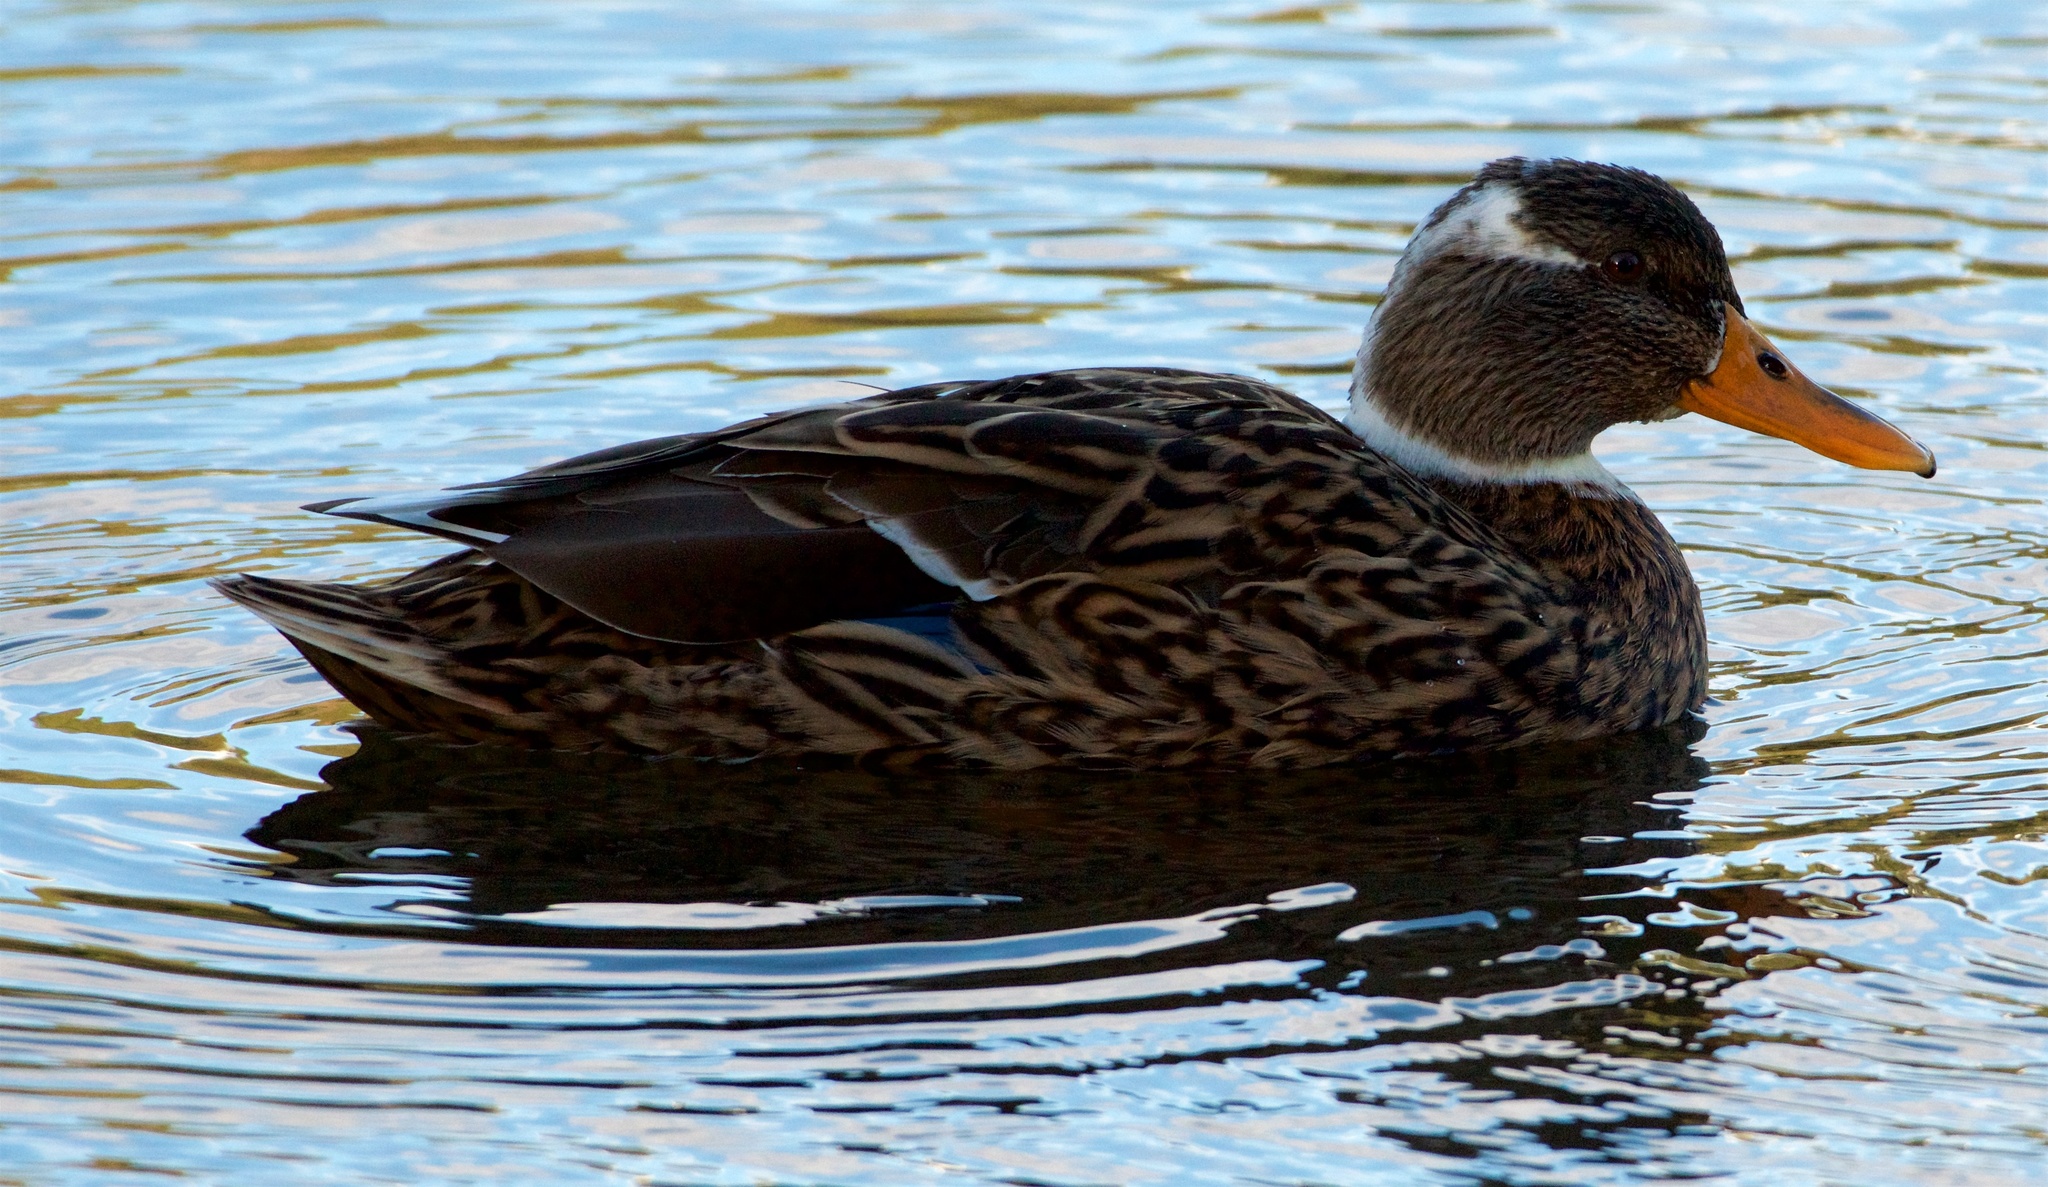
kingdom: Animalia
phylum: Chordata
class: Aves
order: Anseriformes
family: Anatidae
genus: Anas
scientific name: Anas platyrhynchos
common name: Mallard
